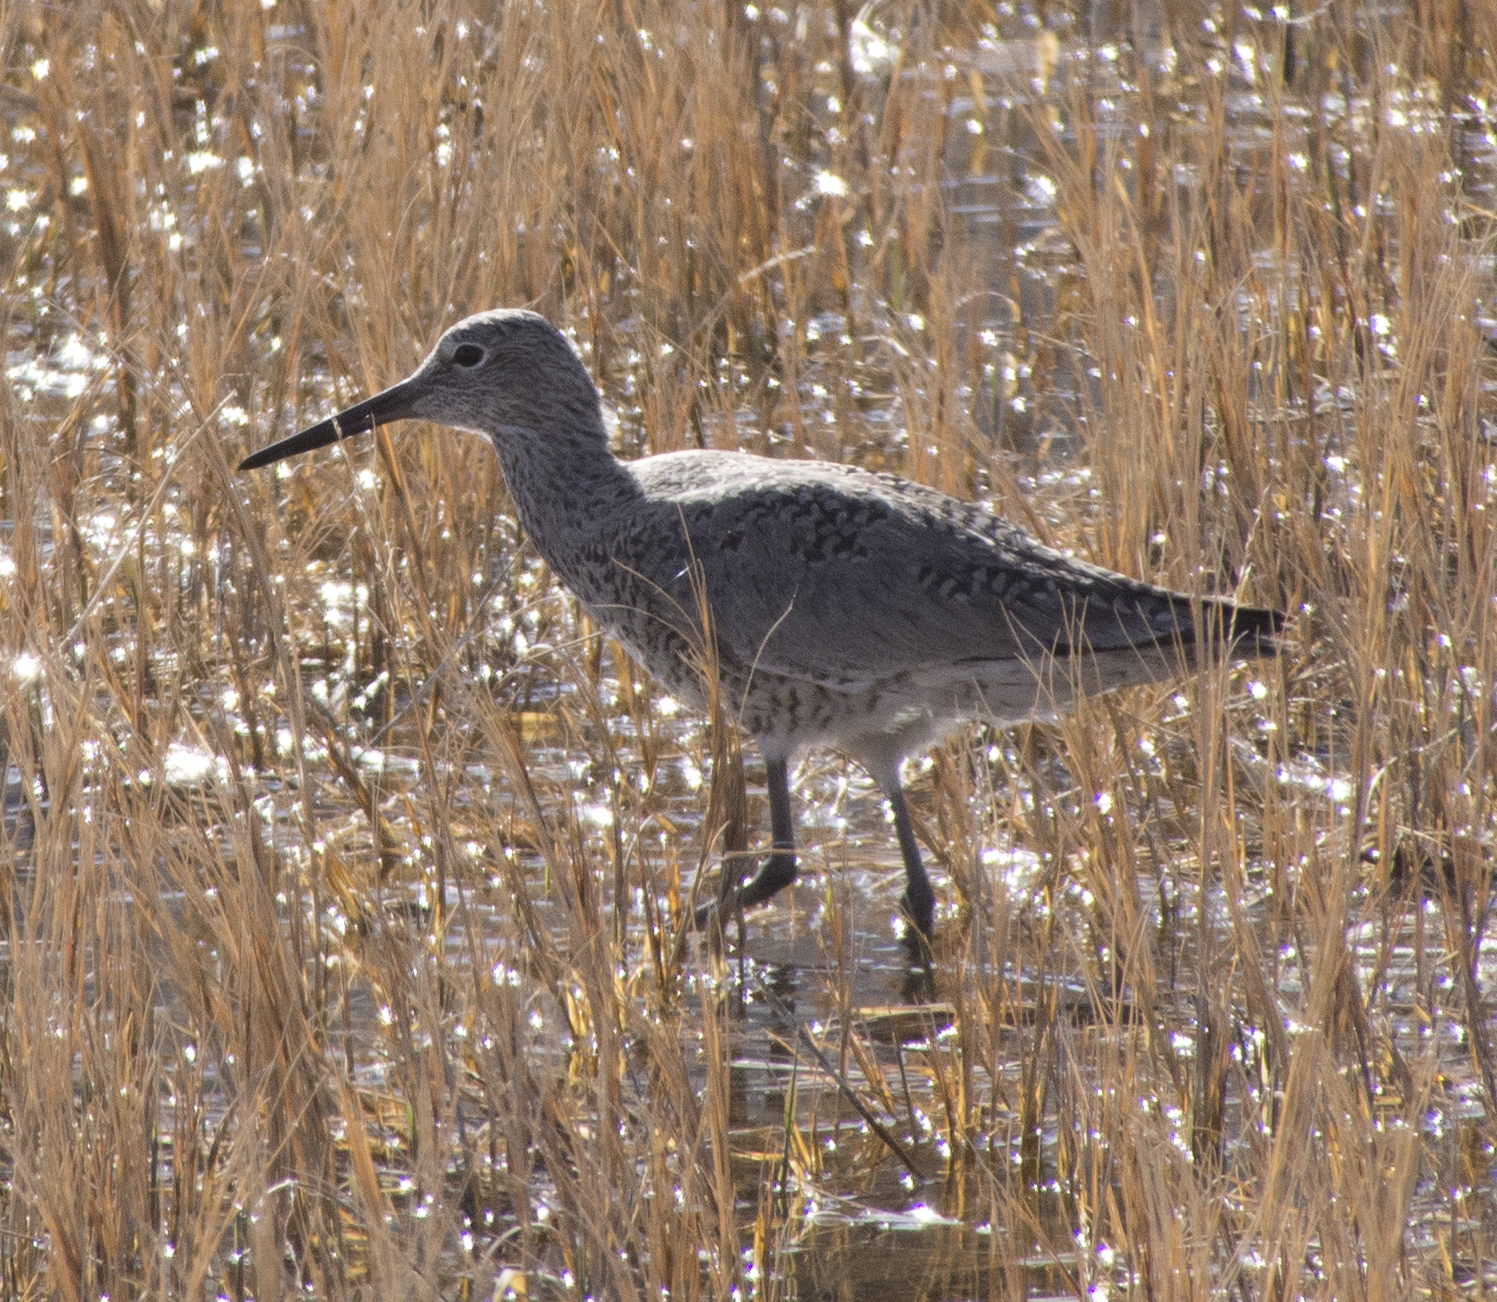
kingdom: Animalia
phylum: Chordata
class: Aves
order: Charadriiformes
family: Scolopacidae
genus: Tringa
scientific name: Tringa semipalmata
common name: Willet
